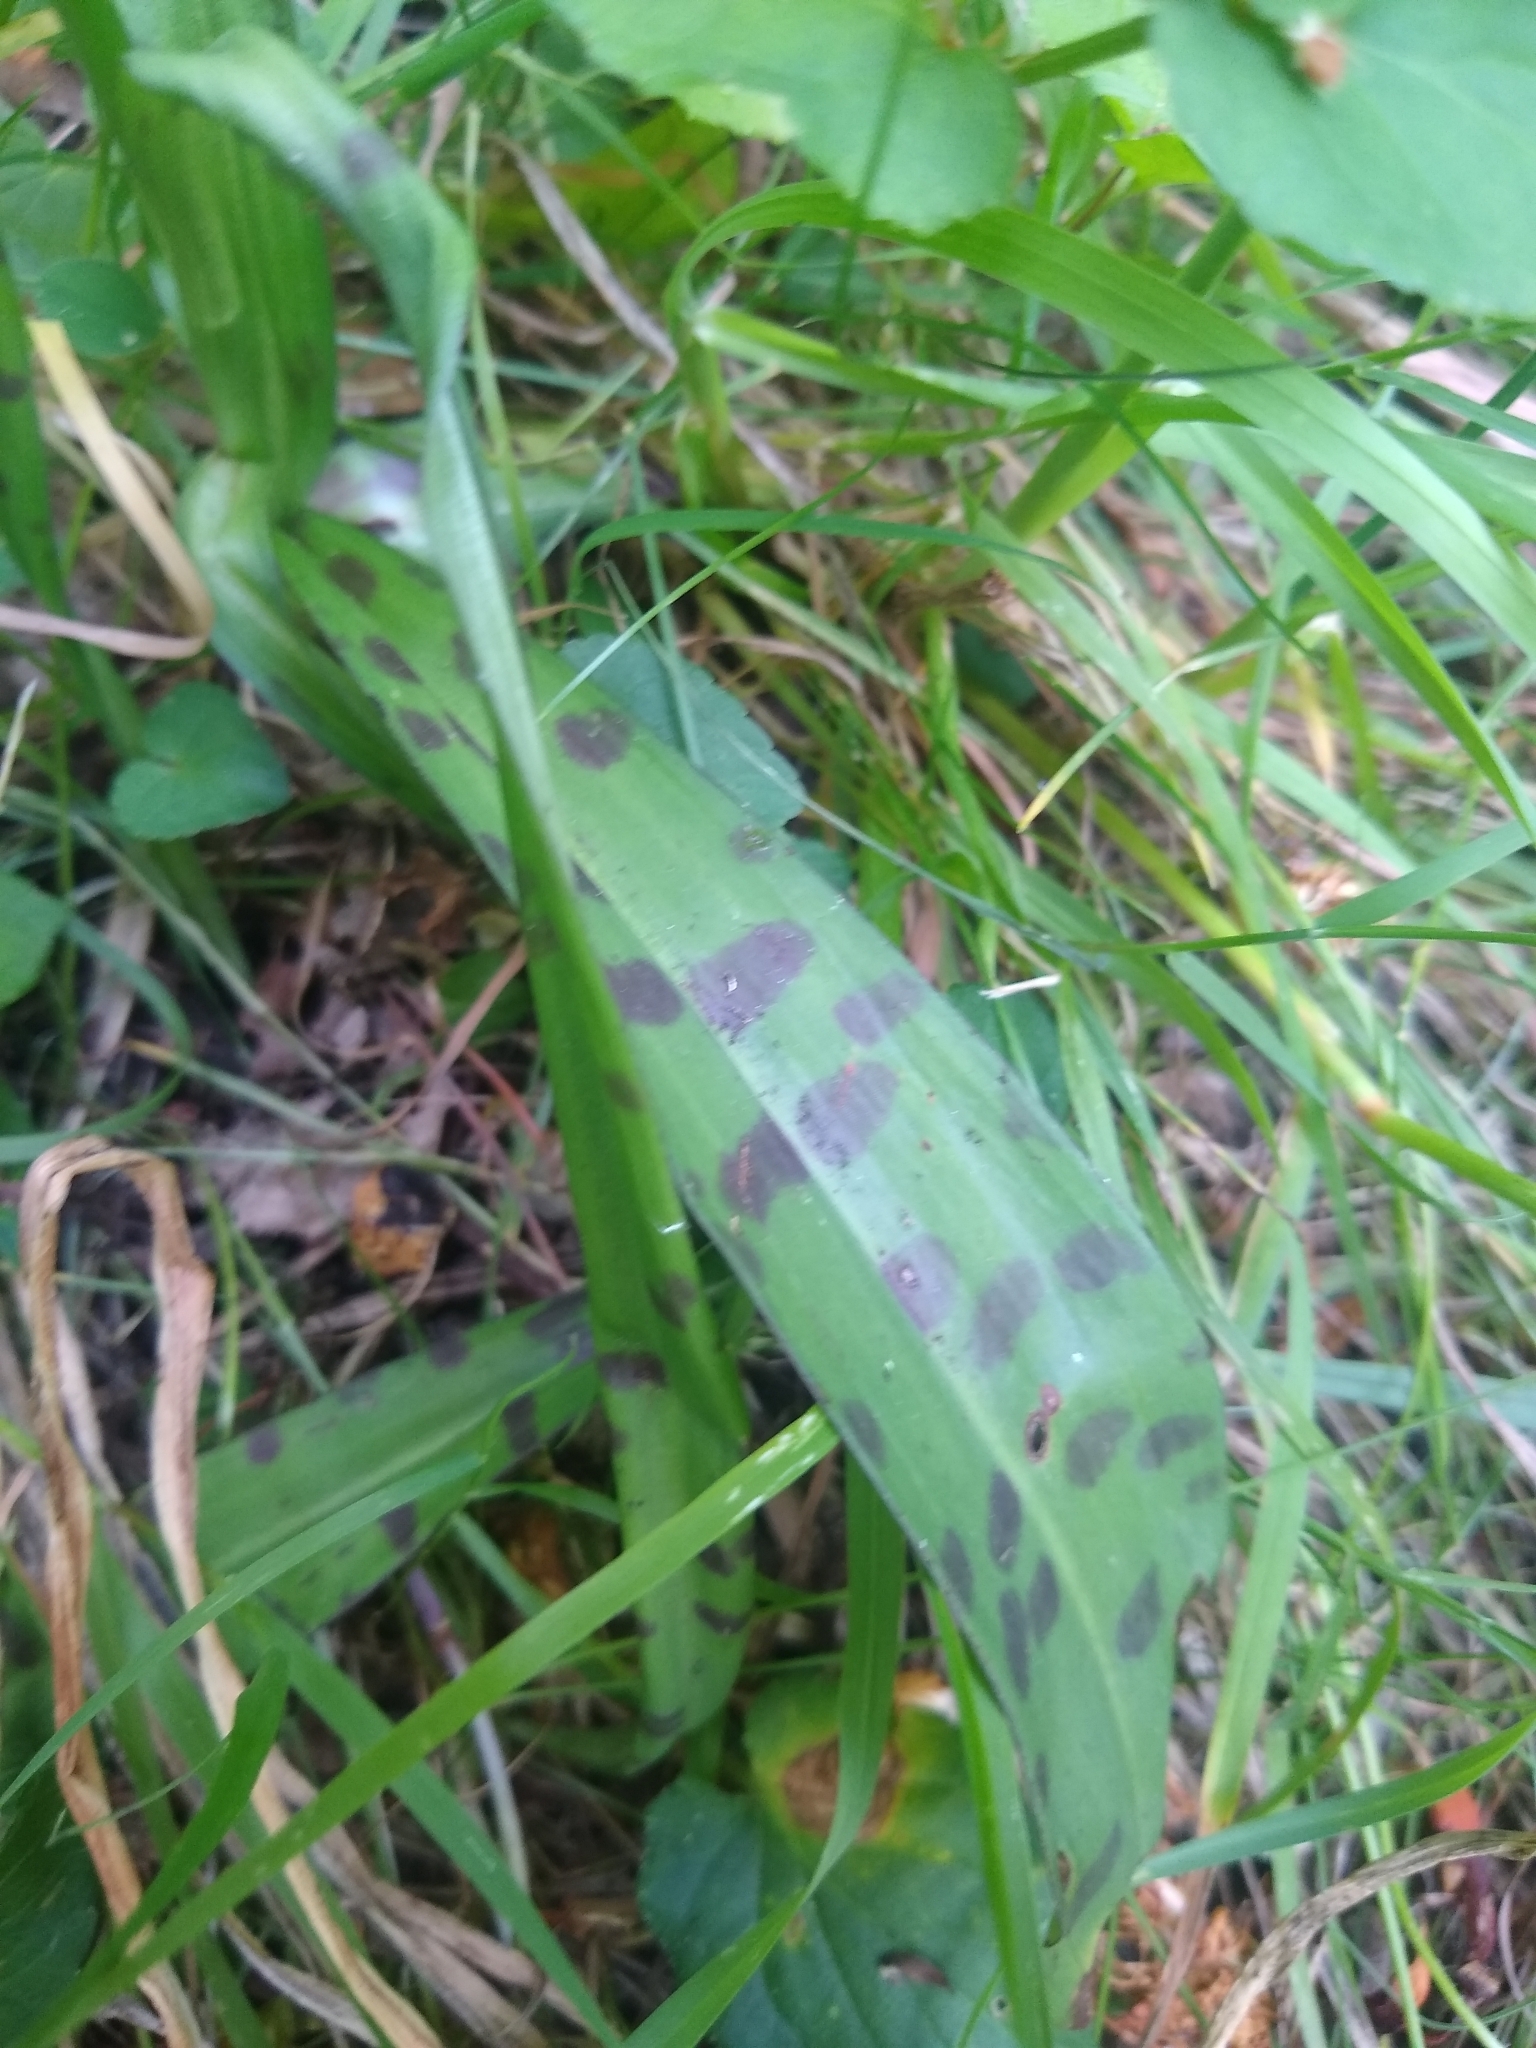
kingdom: Plantae
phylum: Tracheophyta
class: Liliopsida
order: Asparagales
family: Orchidaceae
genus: Dactylorhiza
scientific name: Dactylorhiza maculata
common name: Heath spotted-orchid
